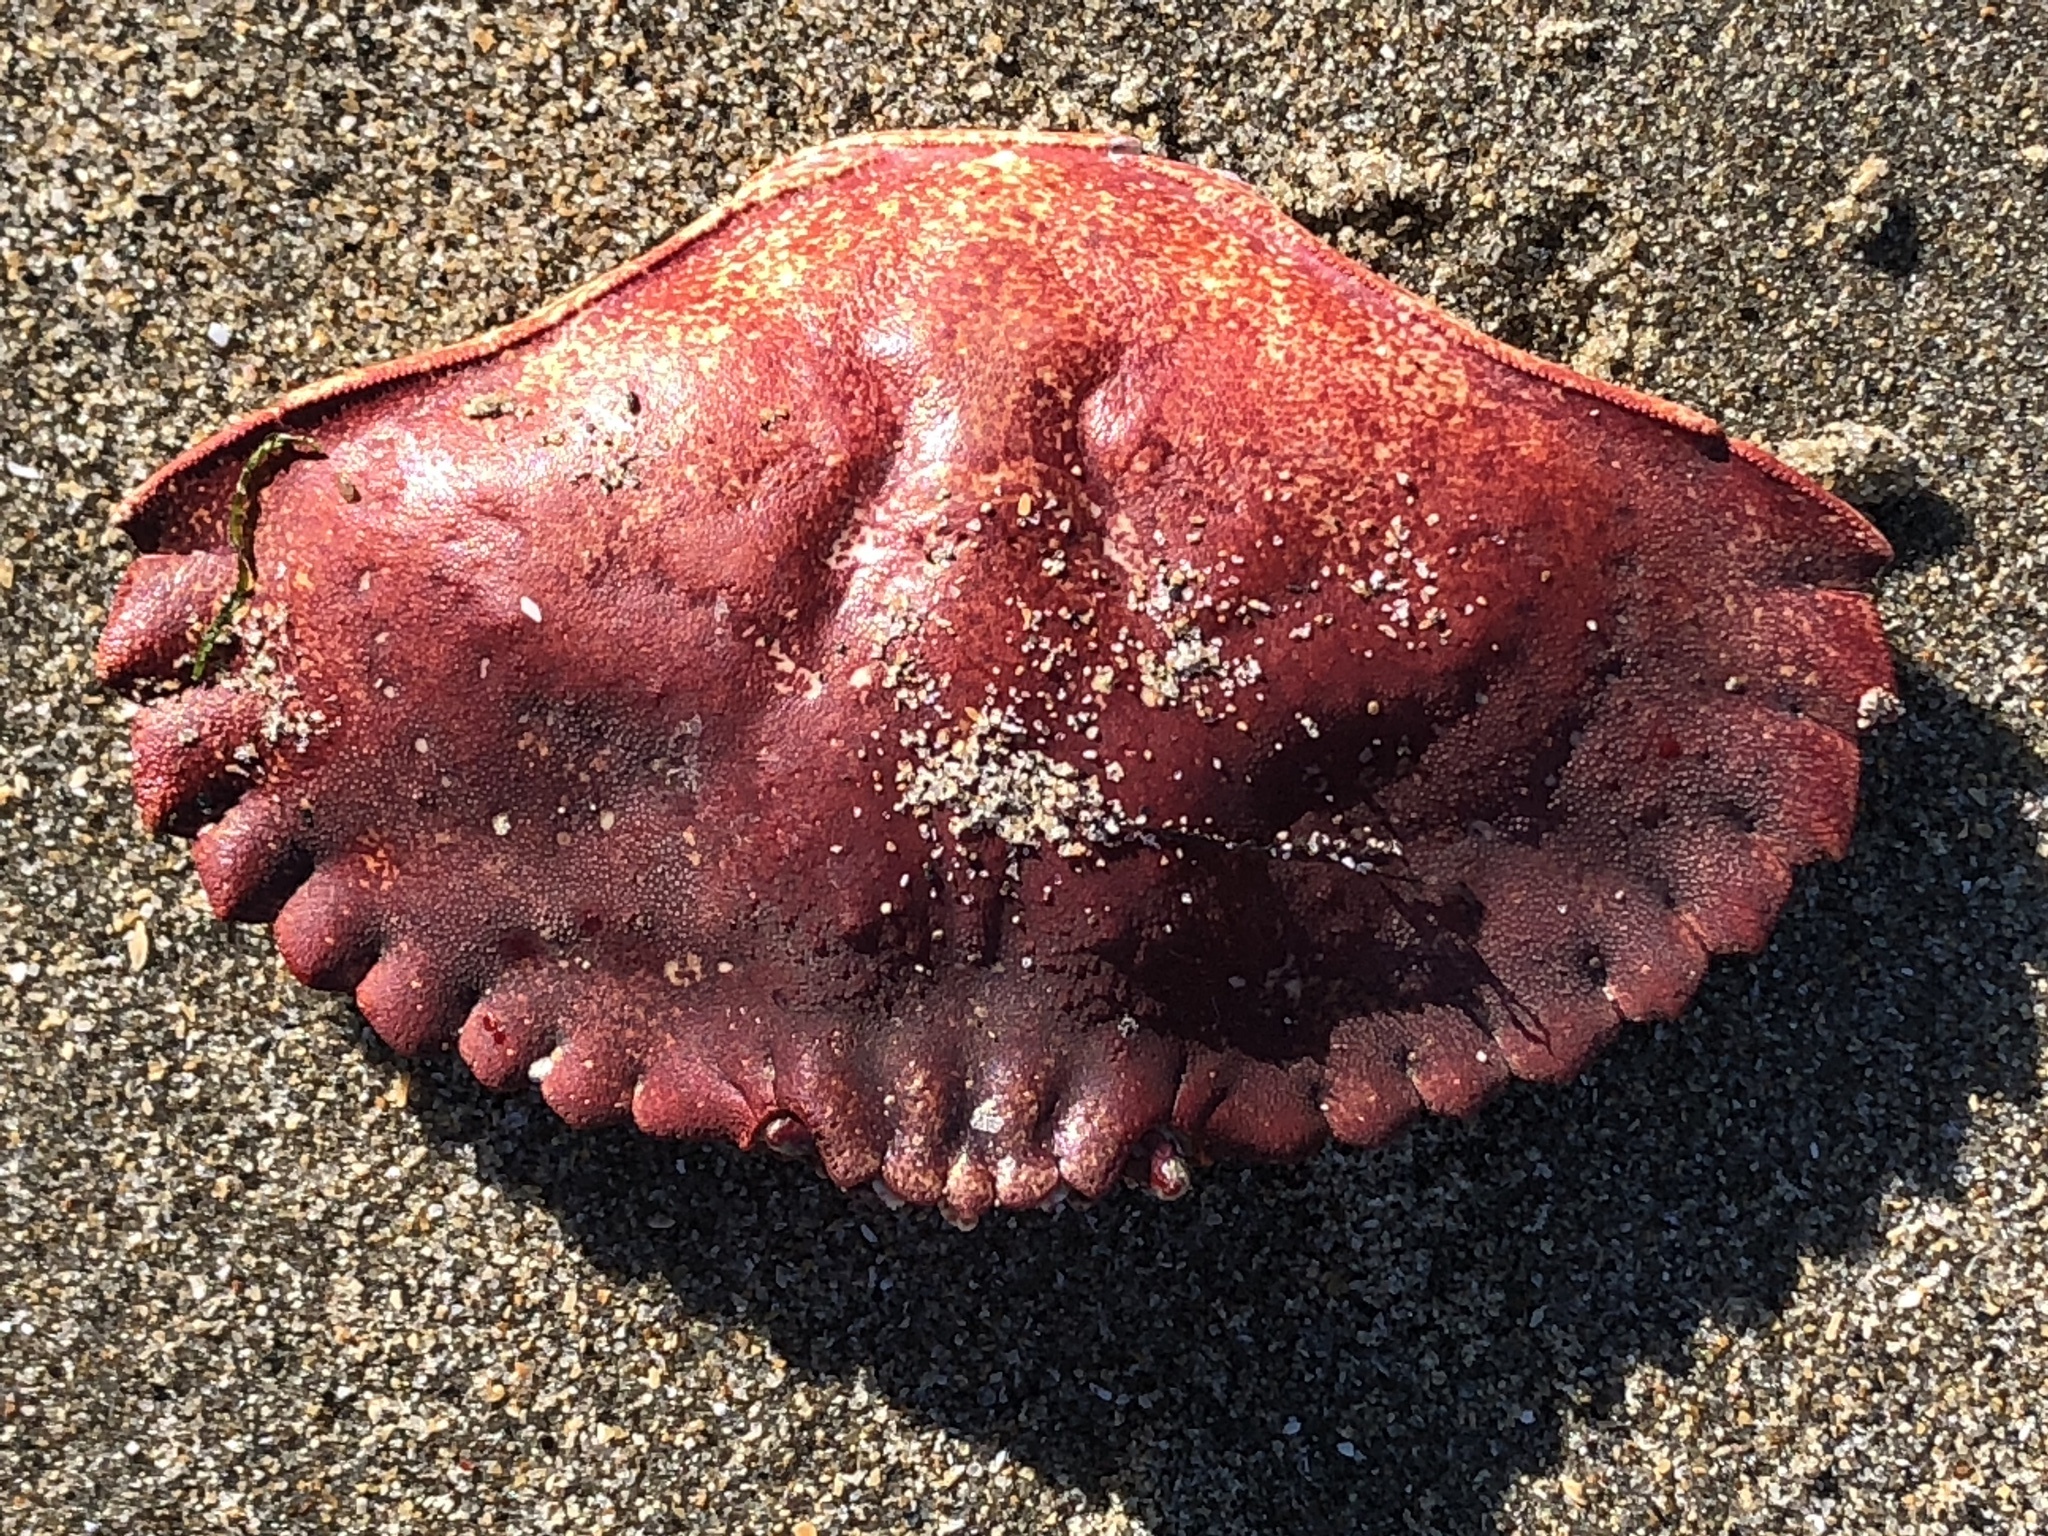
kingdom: Animalia
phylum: Arthropoda
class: Malacostraca
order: Decapoda
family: Cancridae
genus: Cancer
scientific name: Cancer productus
